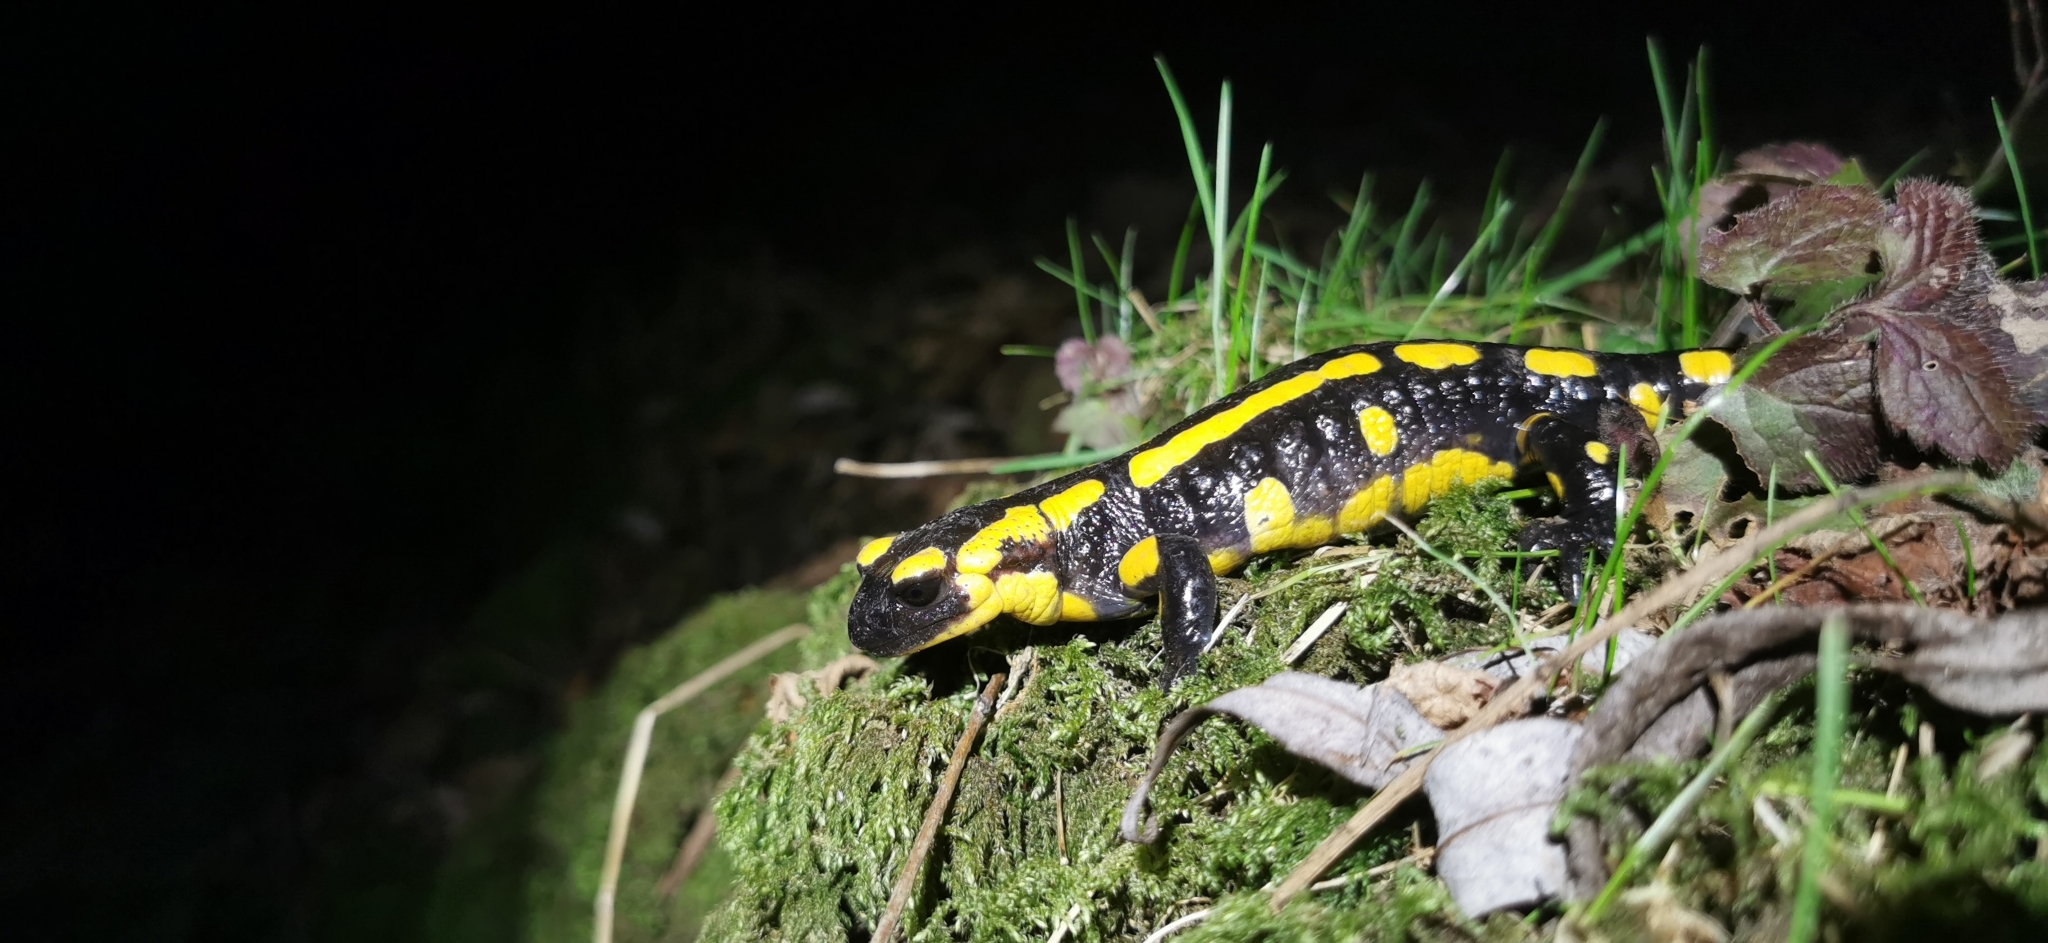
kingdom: Animalia
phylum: Chordata
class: Amphibia
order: Caudata
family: Salamandridae
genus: Salamandra
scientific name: Salamandra salamandra
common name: Fire salamander
